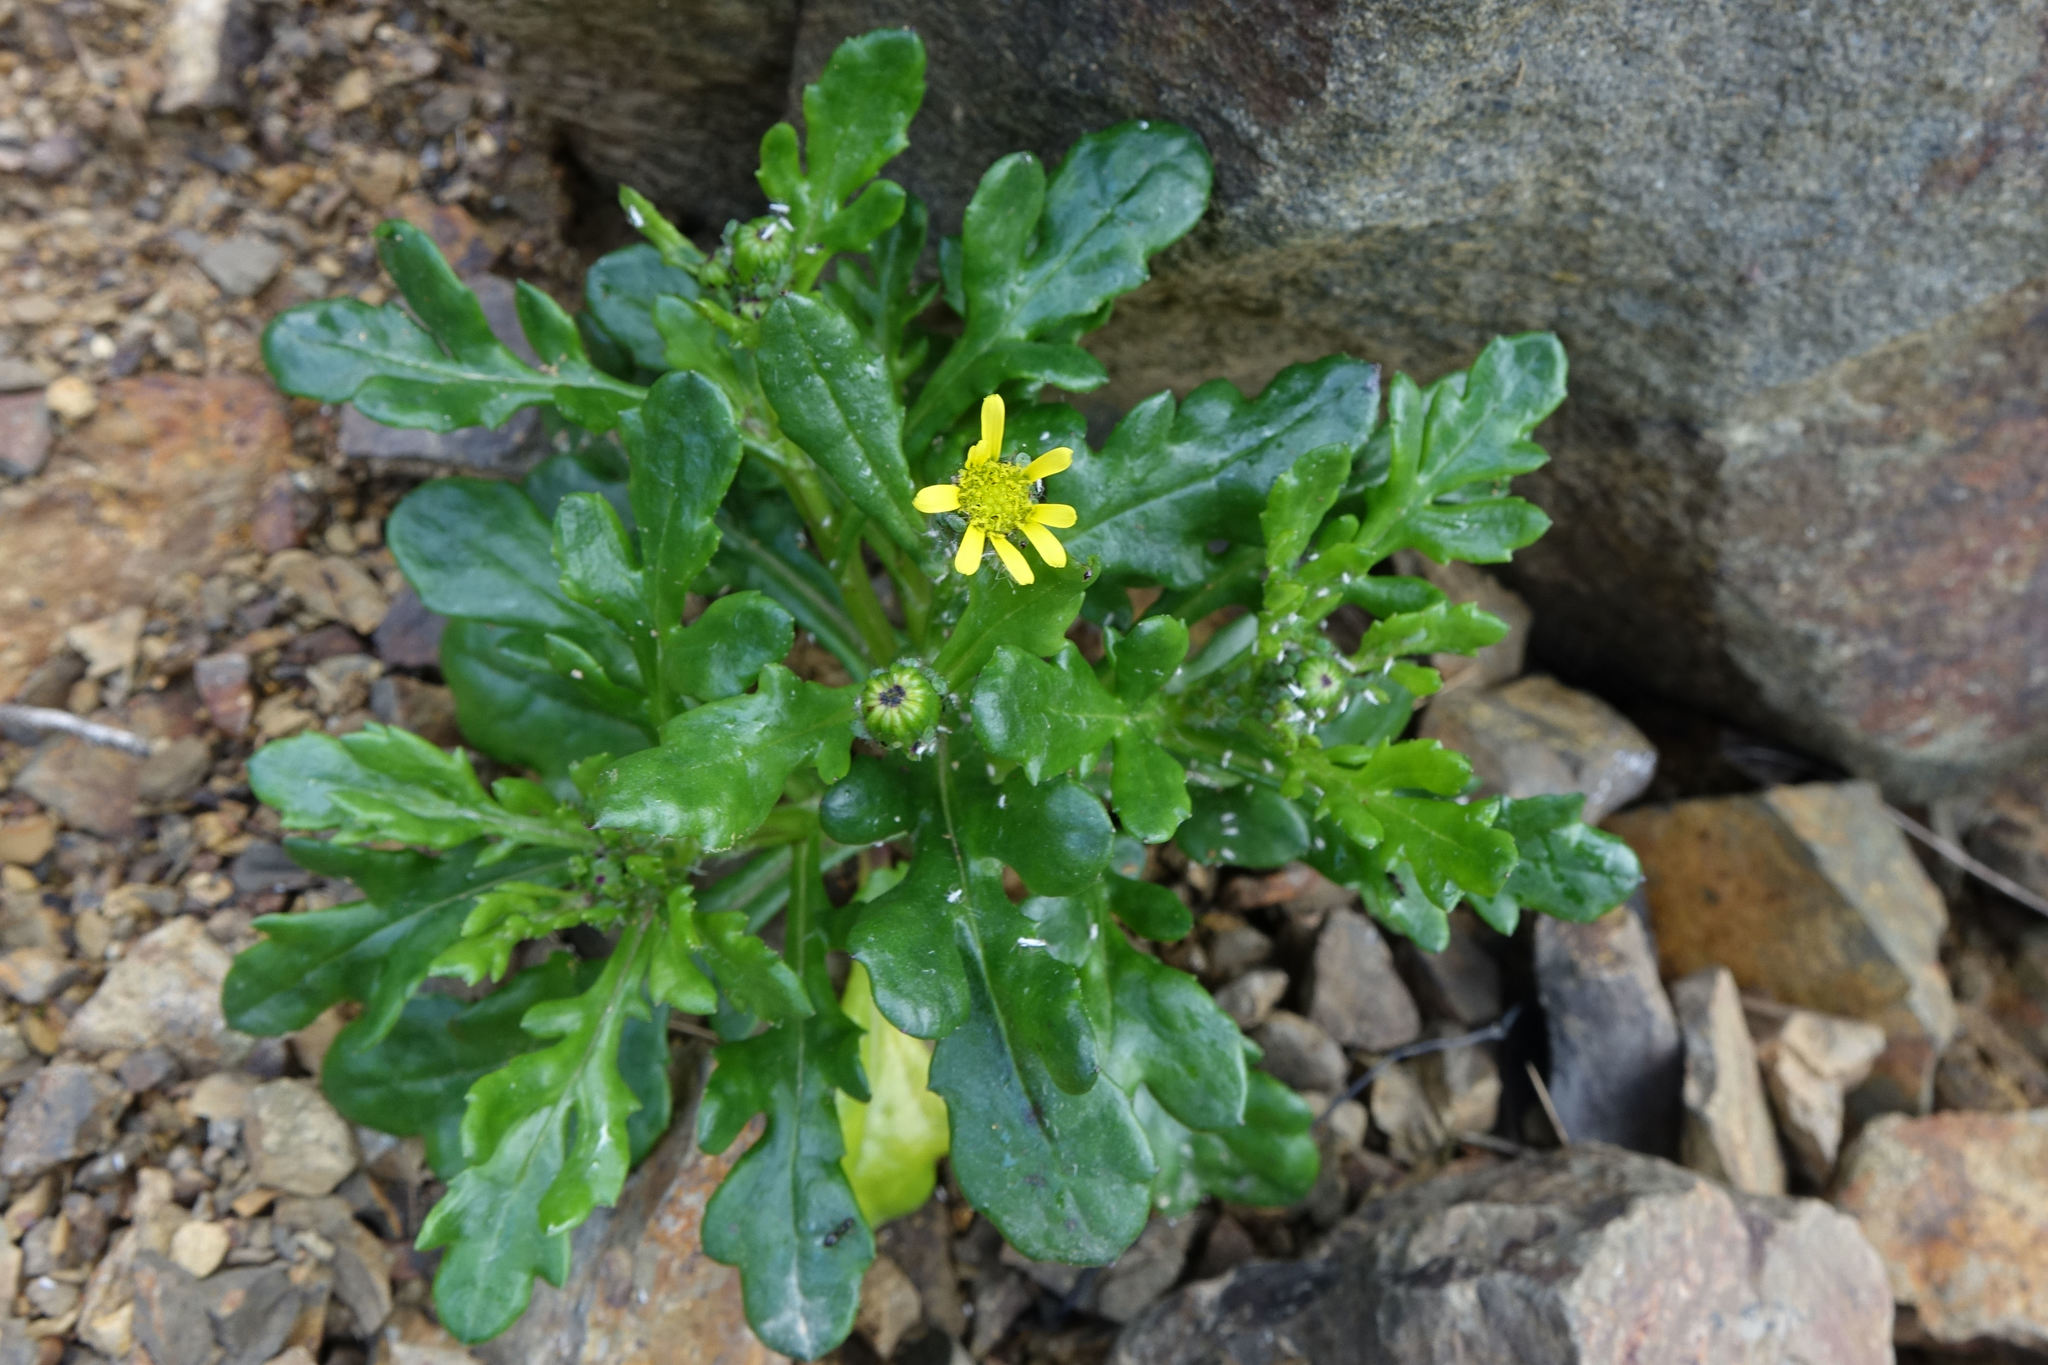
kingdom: Plantae
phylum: Tracheophyta
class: Magnoliopsida
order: Asterales
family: Asteraceae
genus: Senecio
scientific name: Senecio carnosulus
